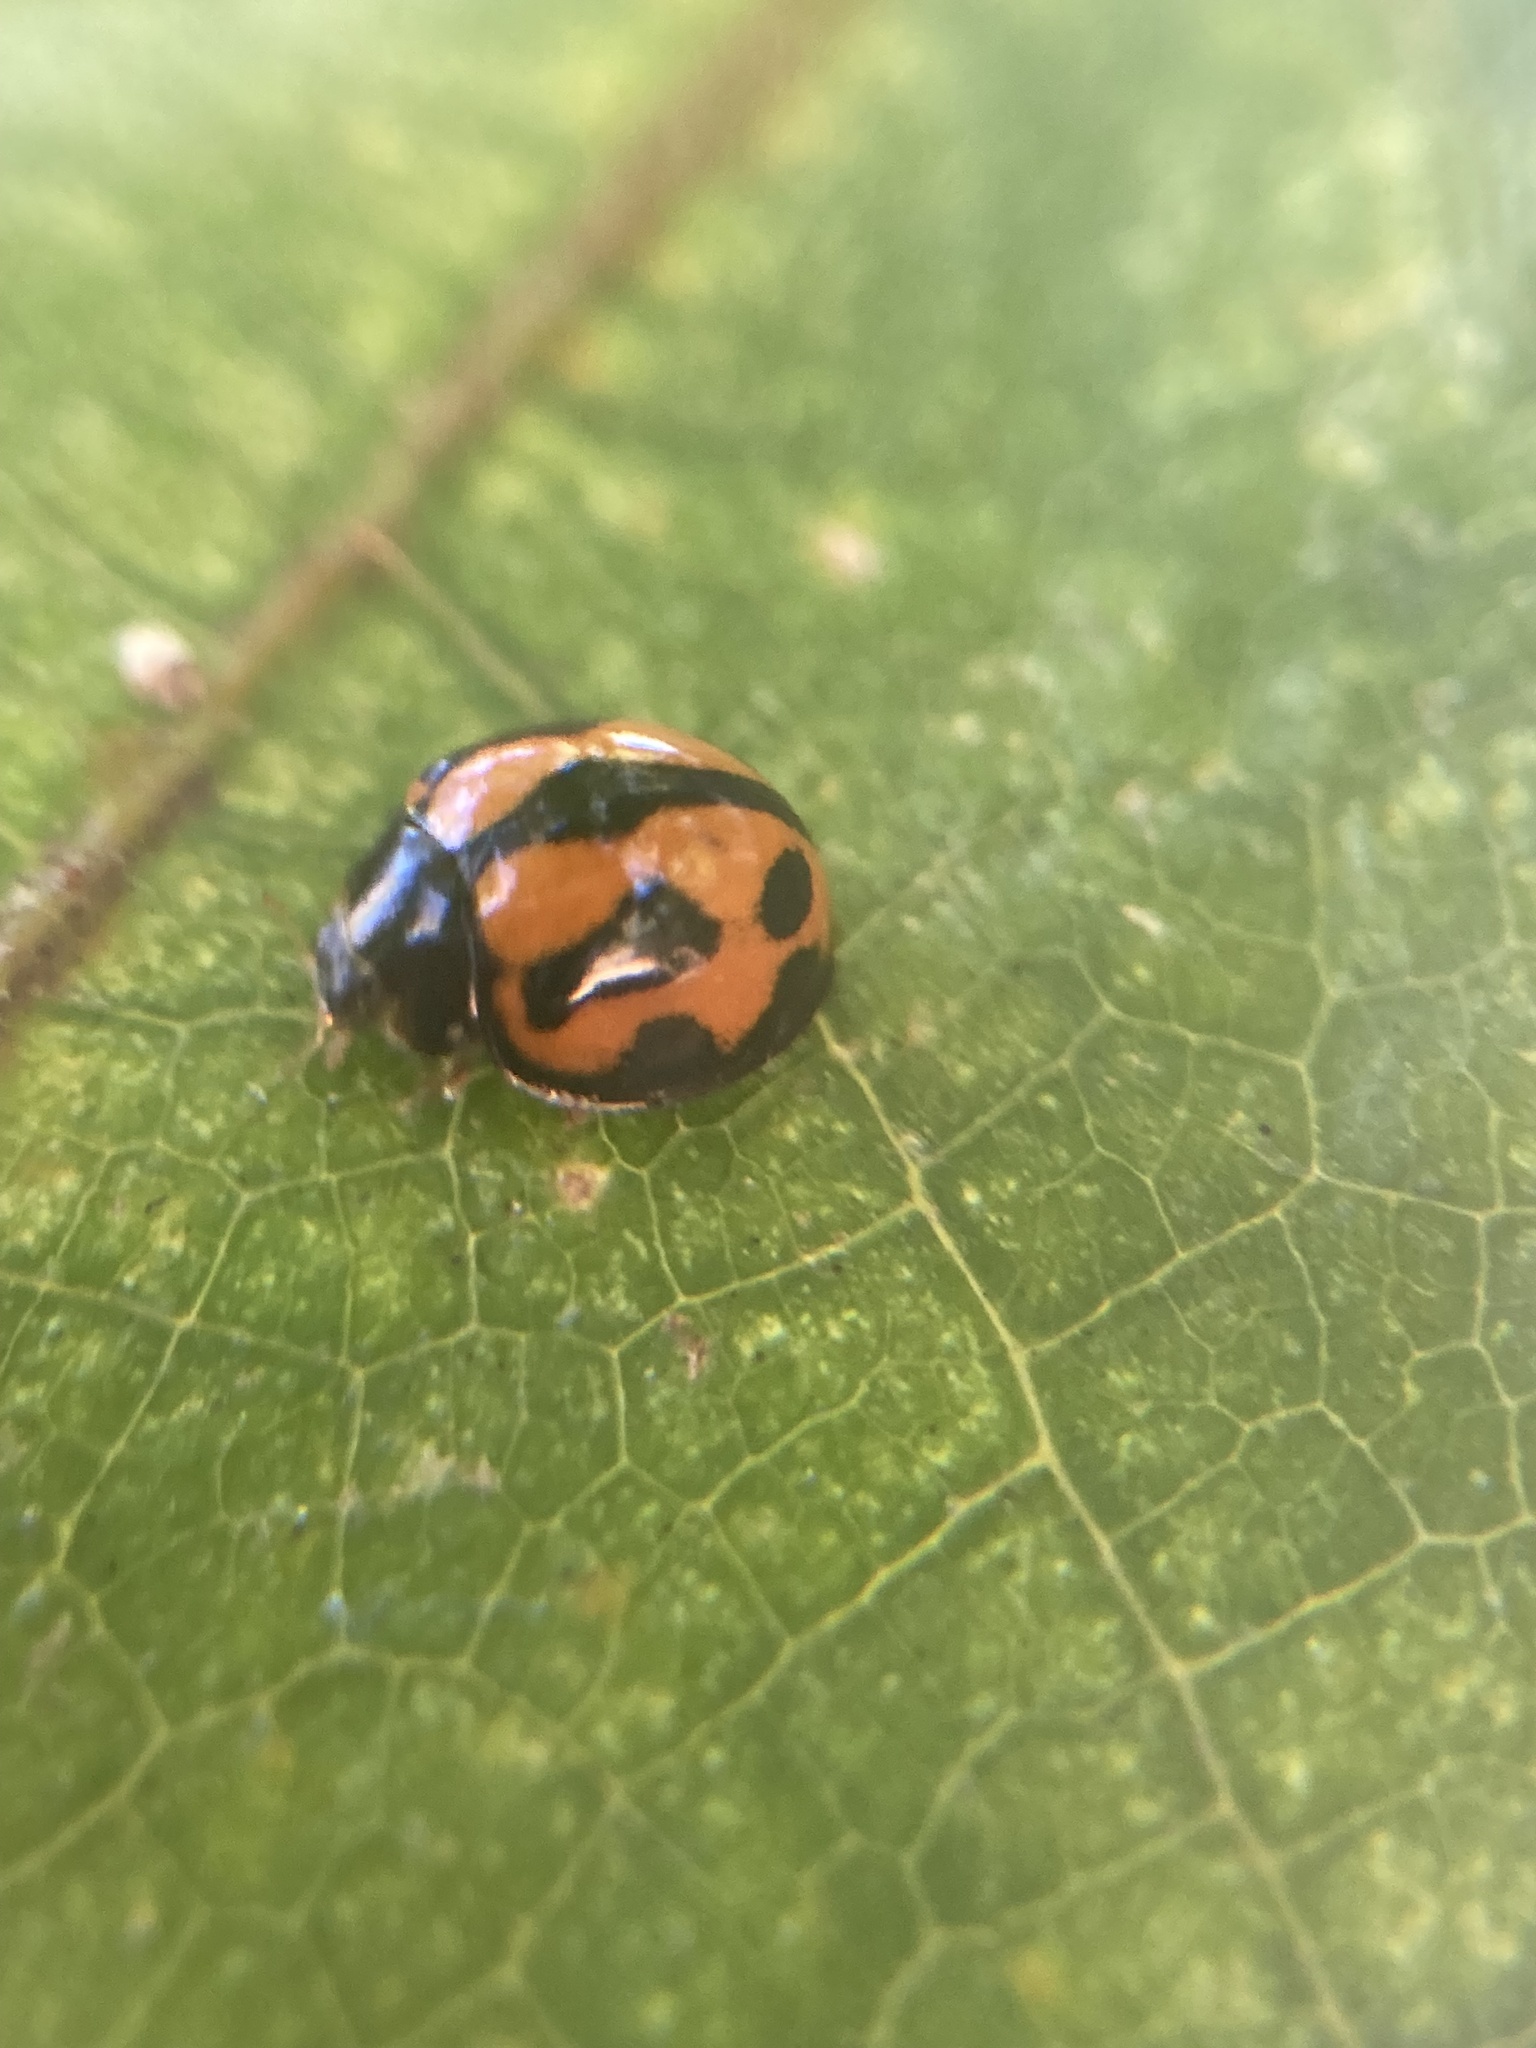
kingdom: Animalia
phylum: Arthropoda
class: Insecta
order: Coleoptera
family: Coccinellidae
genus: Coelophora
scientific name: Coelophora inaequalis
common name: Common australian lady beetle
